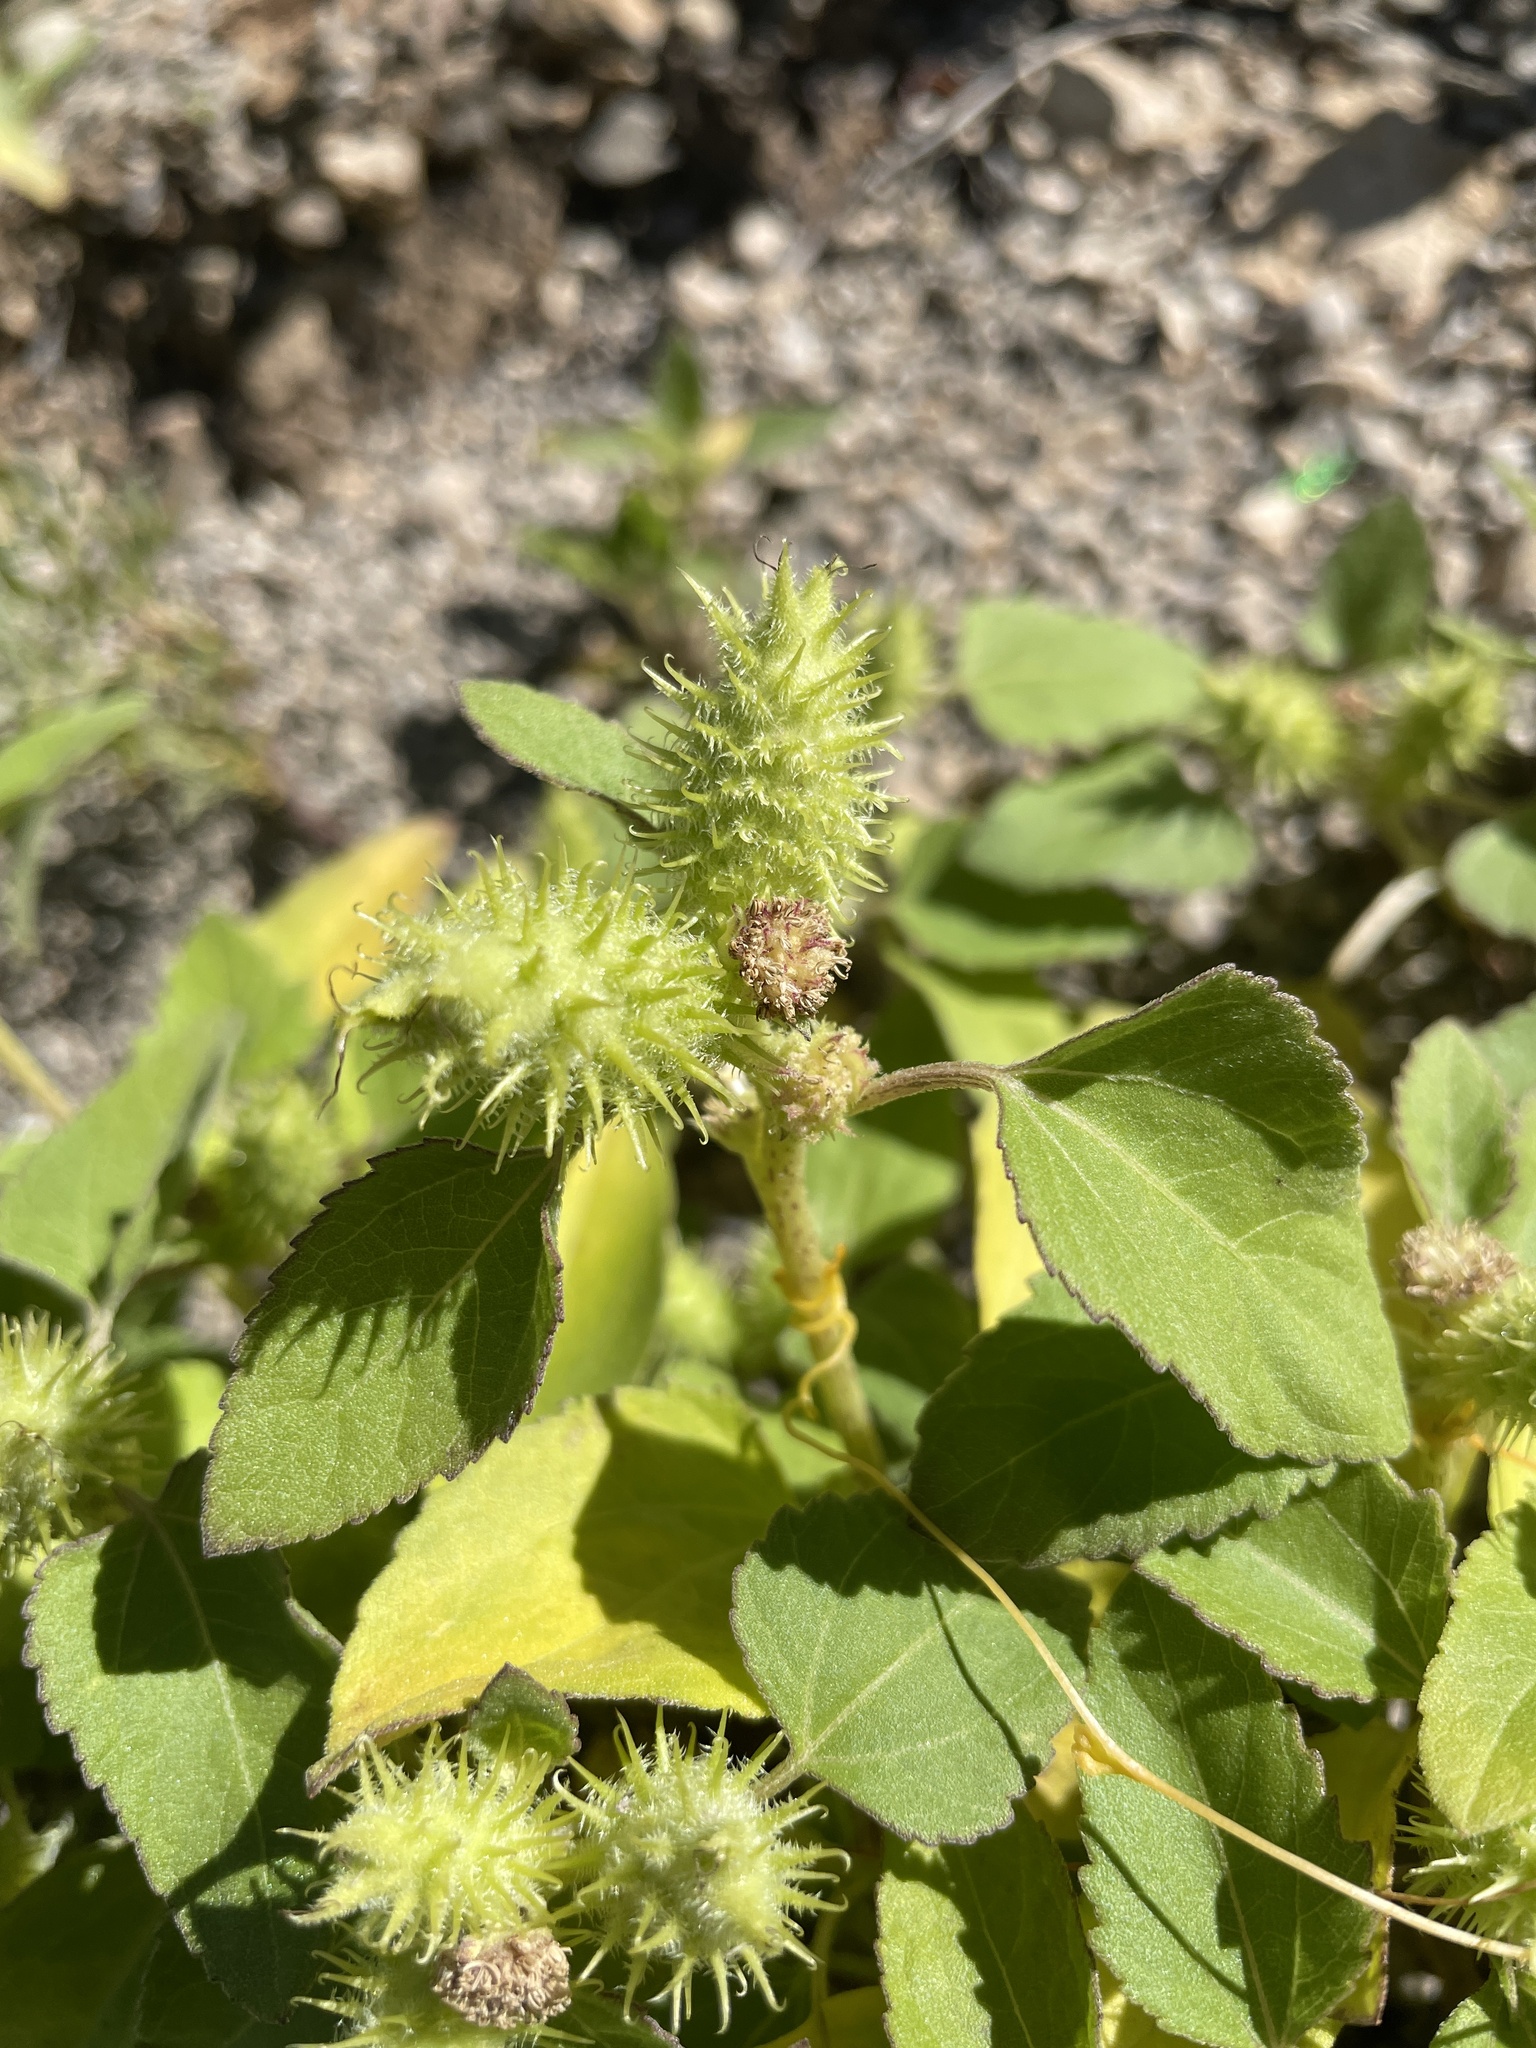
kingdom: Plantae
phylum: Tracheophyta
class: Magnoliopsida
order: Asterales
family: Asteraceae
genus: Xanthium
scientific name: Xanthium strumarium
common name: Rough cocklebur
